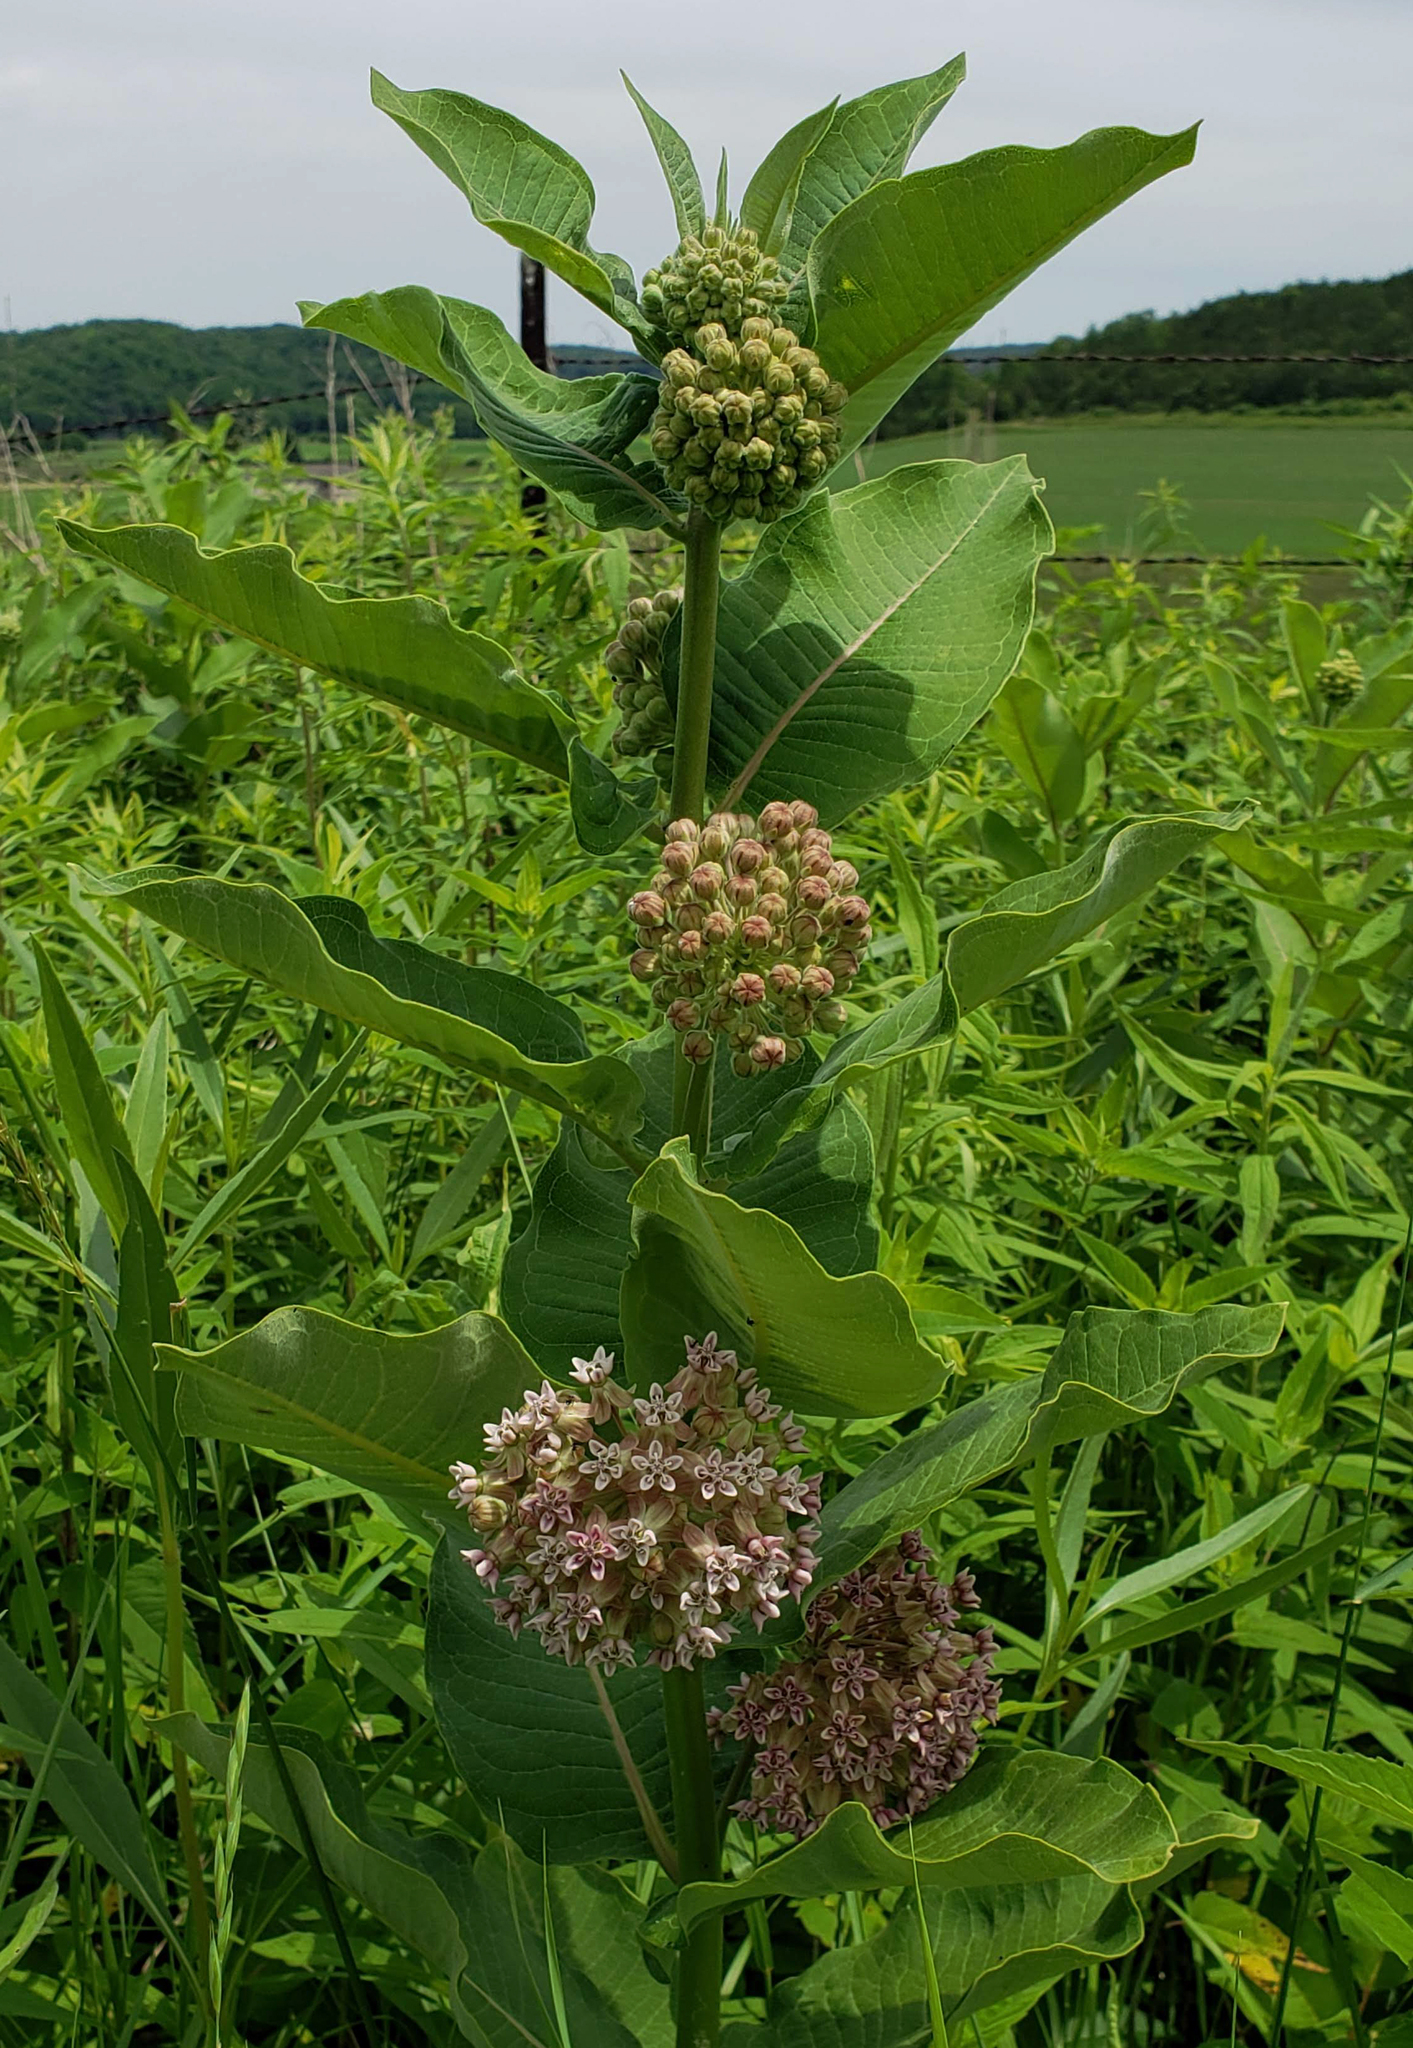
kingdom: Plantae
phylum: Tracheophyta
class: Magnoliopsida
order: Gentianales
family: Apocynaceae
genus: Asclepias
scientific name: Asclepias syriaca
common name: Common milkweed
